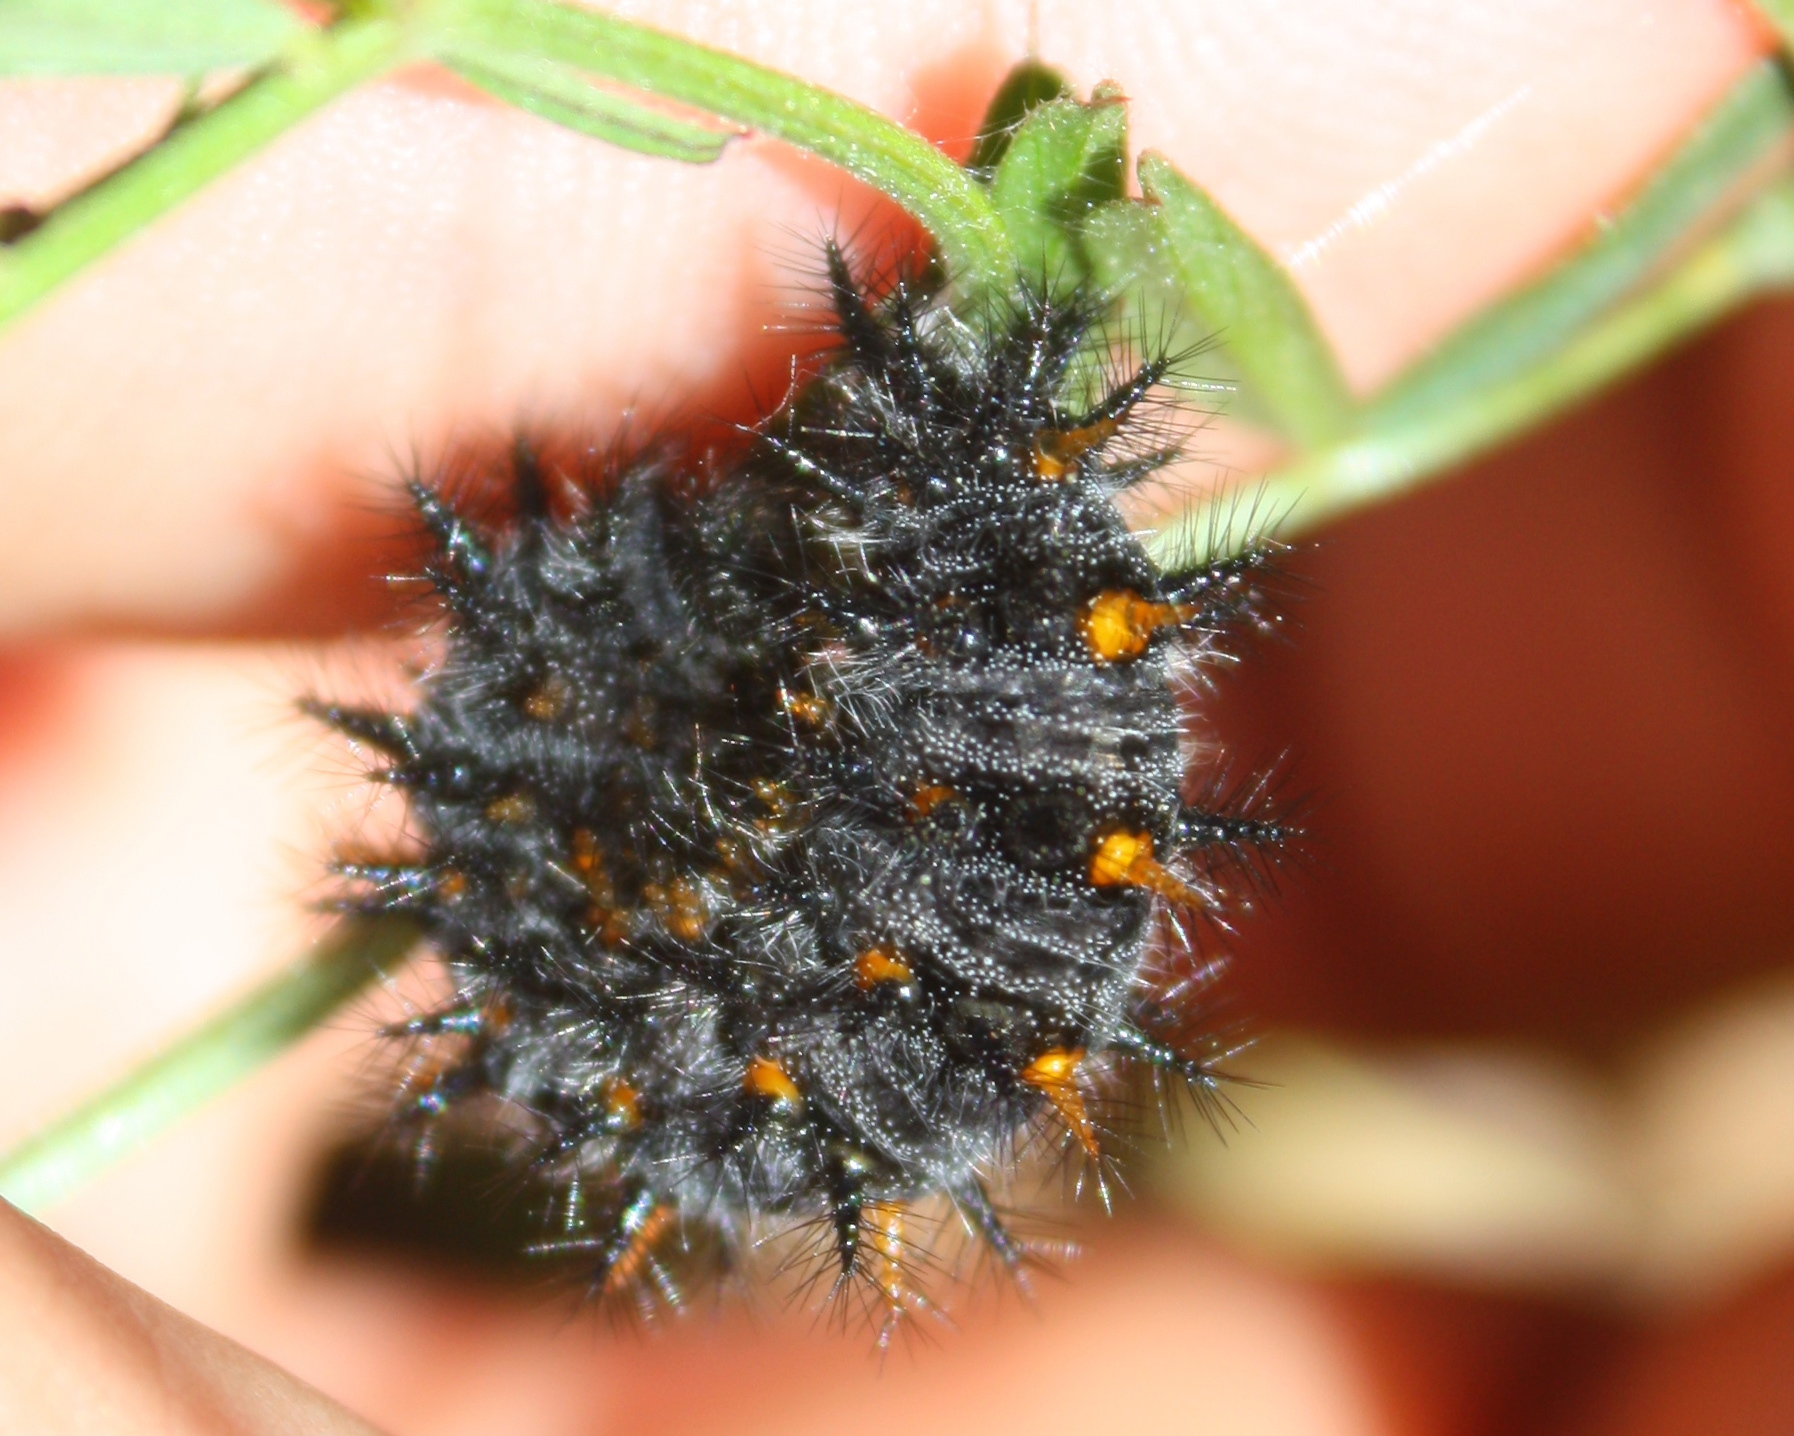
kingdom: Animalia
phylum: Arthropoda
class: Insecta
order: Lepidoptera
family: Nymphalidae
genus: Occidryas
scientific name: Occidryas chalcedona
